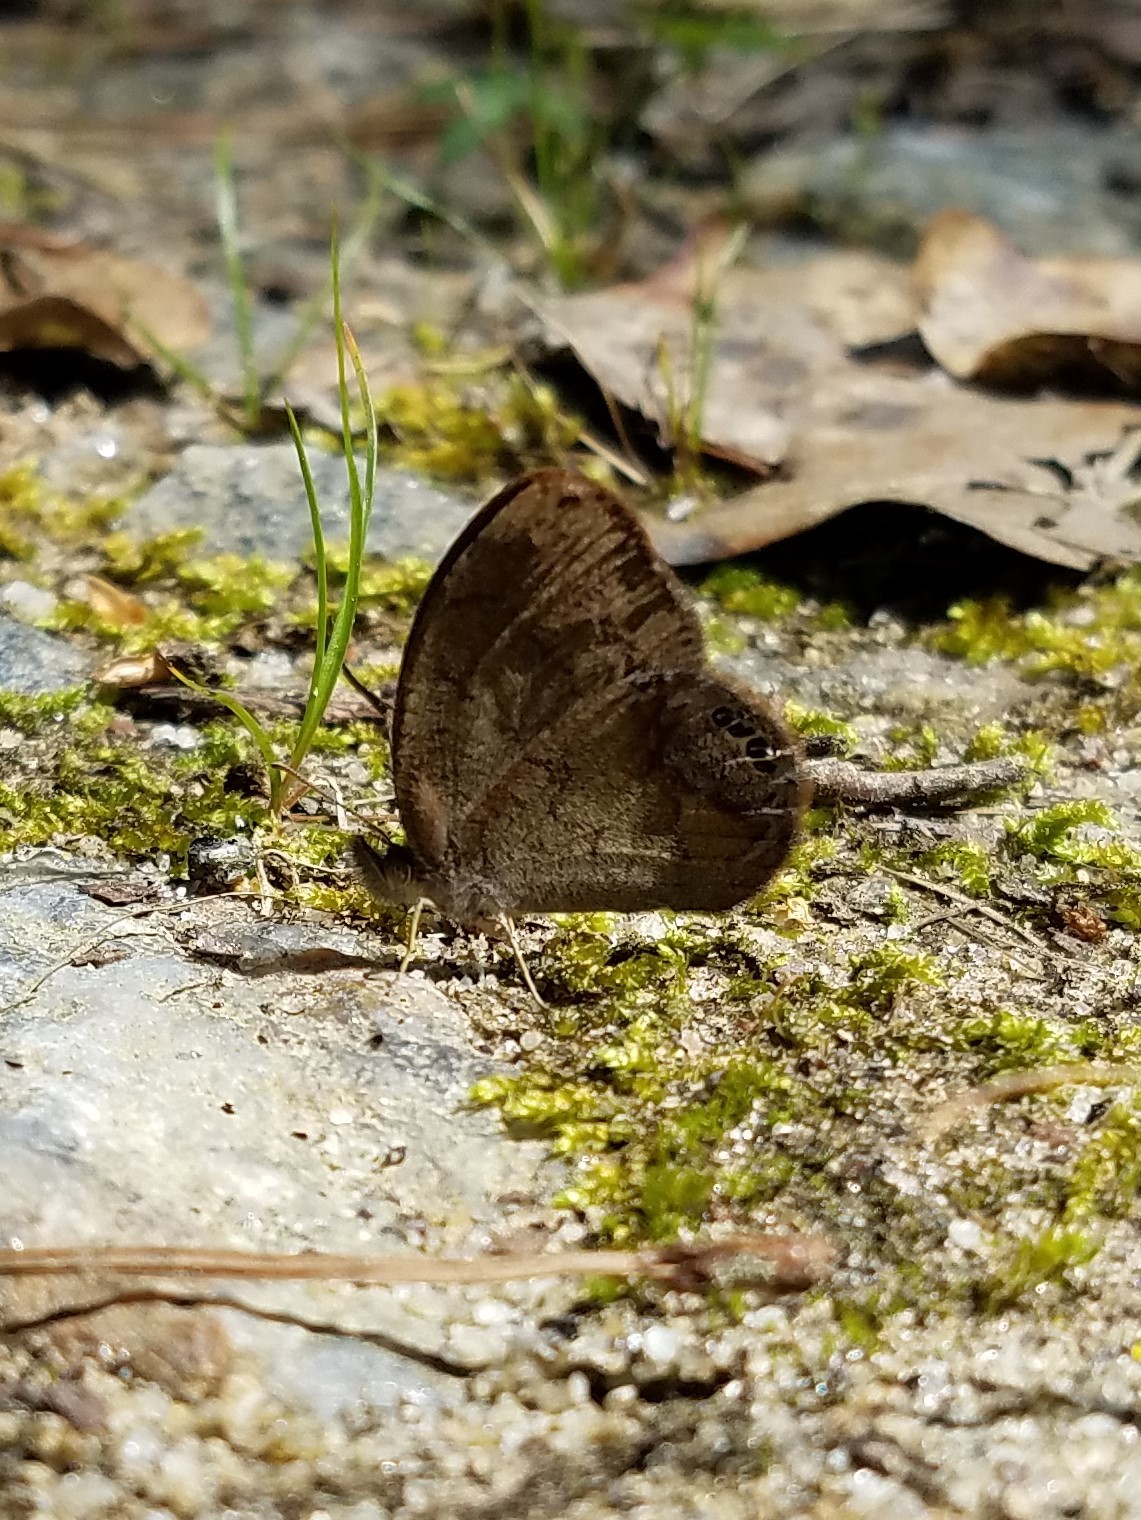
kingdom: Animalia
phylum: Arthropoda
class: Insecta
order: Lepidoptera
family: Nymphalidae
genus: Euptychia
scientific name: Euptychia cornelius
